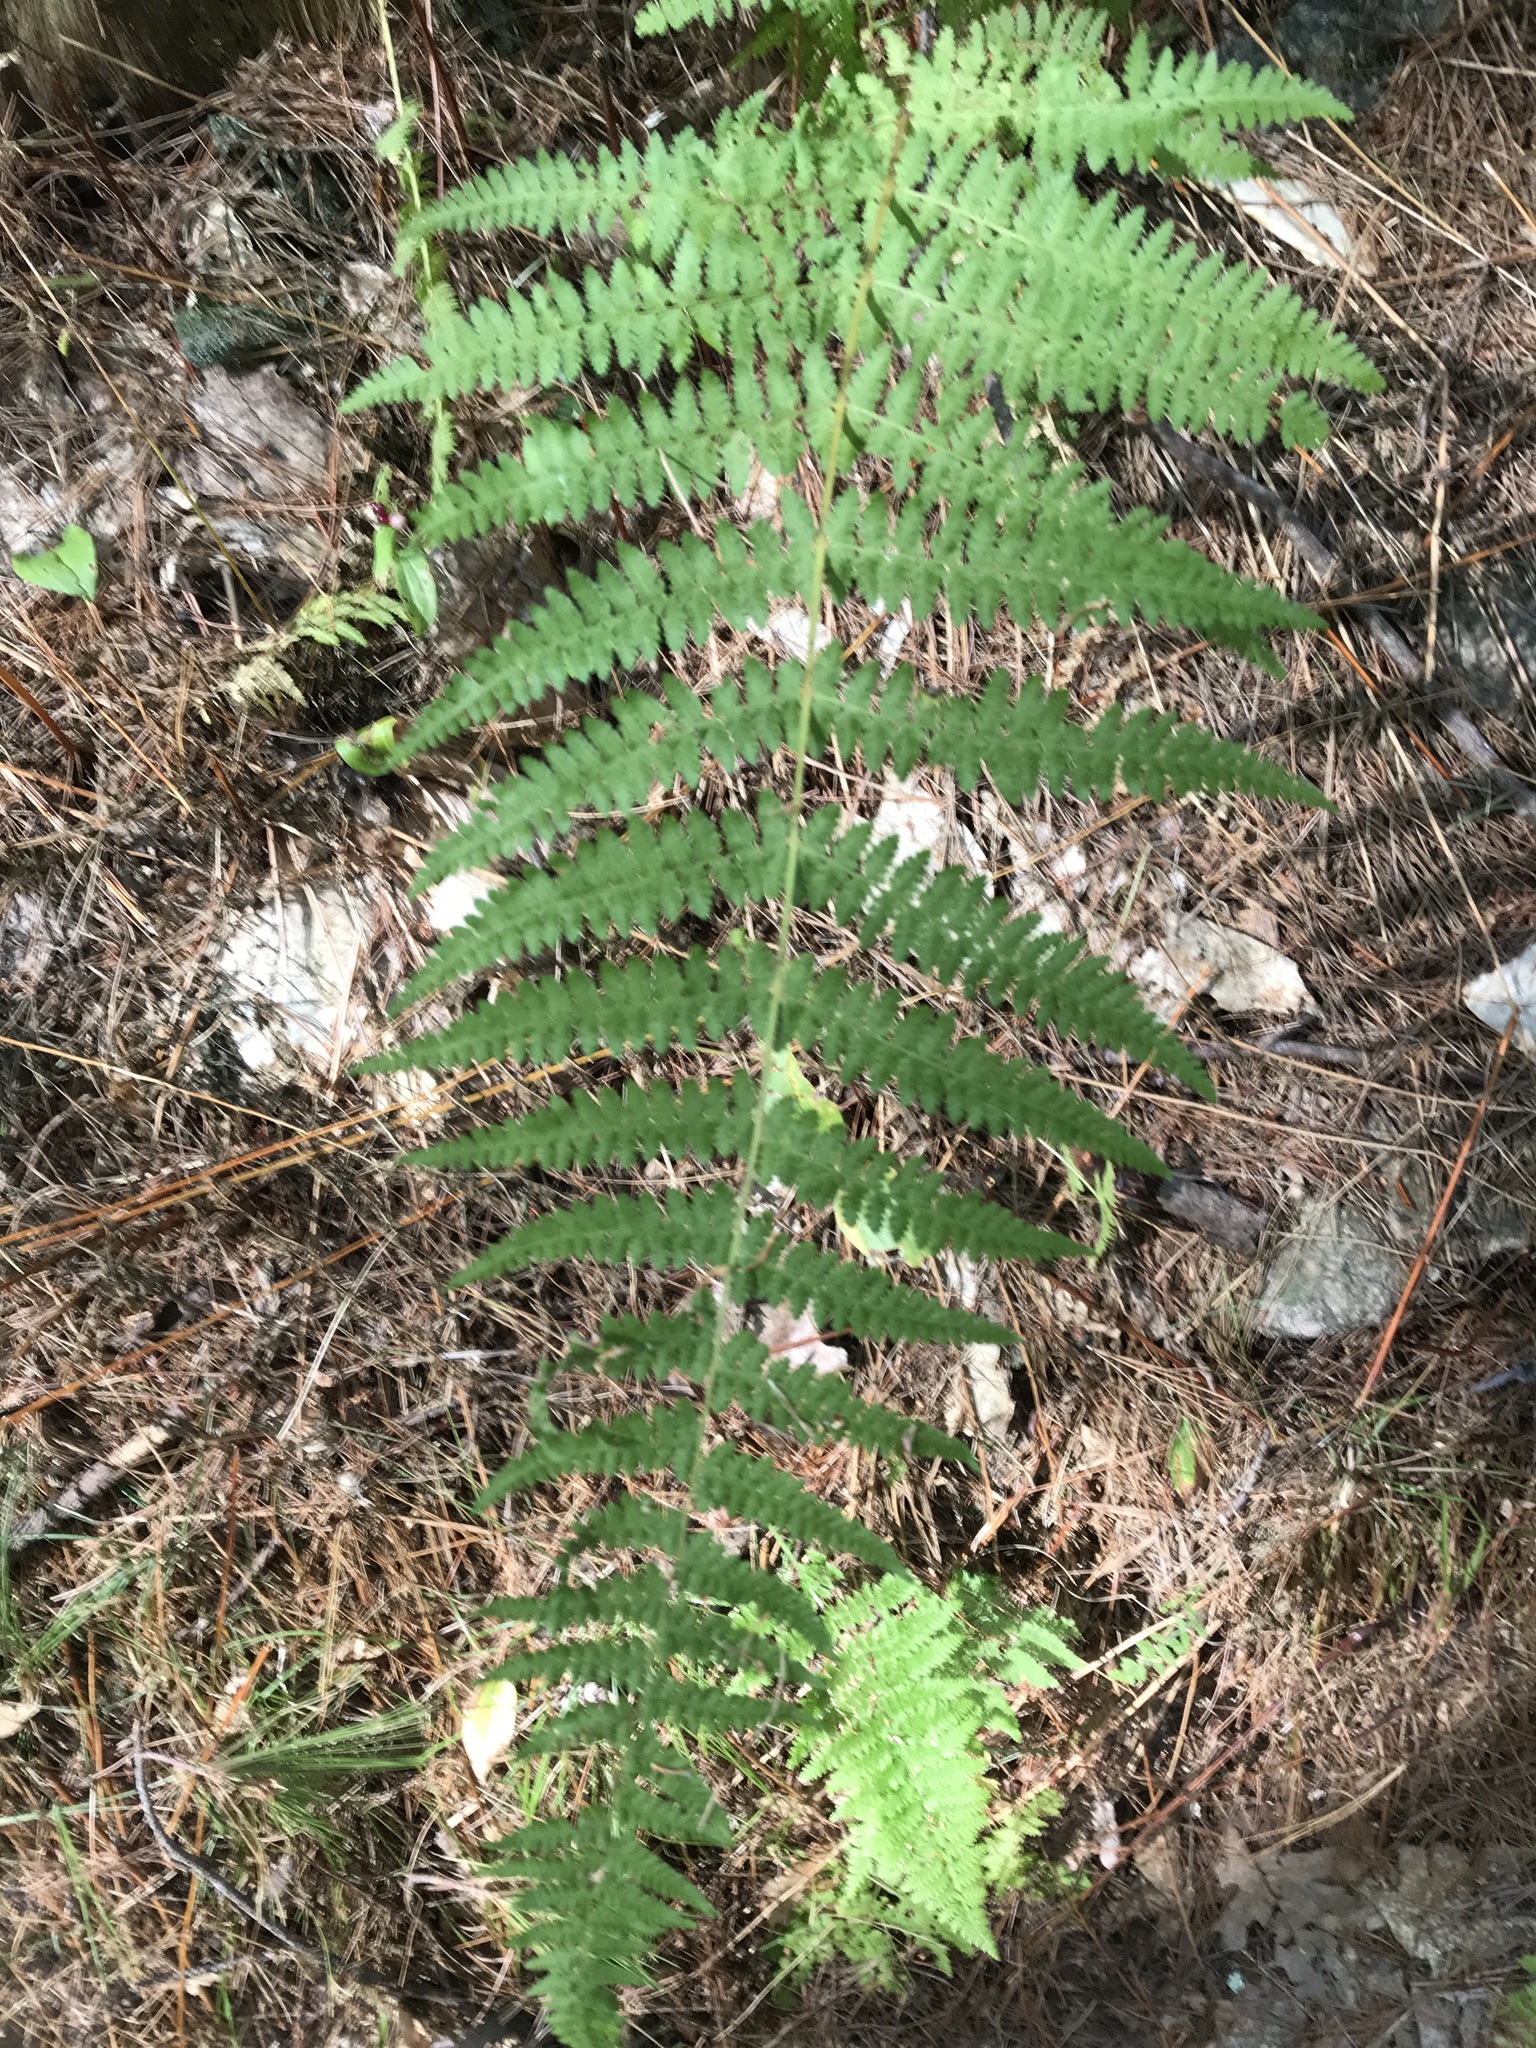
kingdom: Plantae
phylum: Tracheophyta
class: Polypodiopsida
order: Polypodiales
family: Dennstaedtiaceae
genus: Sitobolium
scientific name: Sitobolium punctilobum
